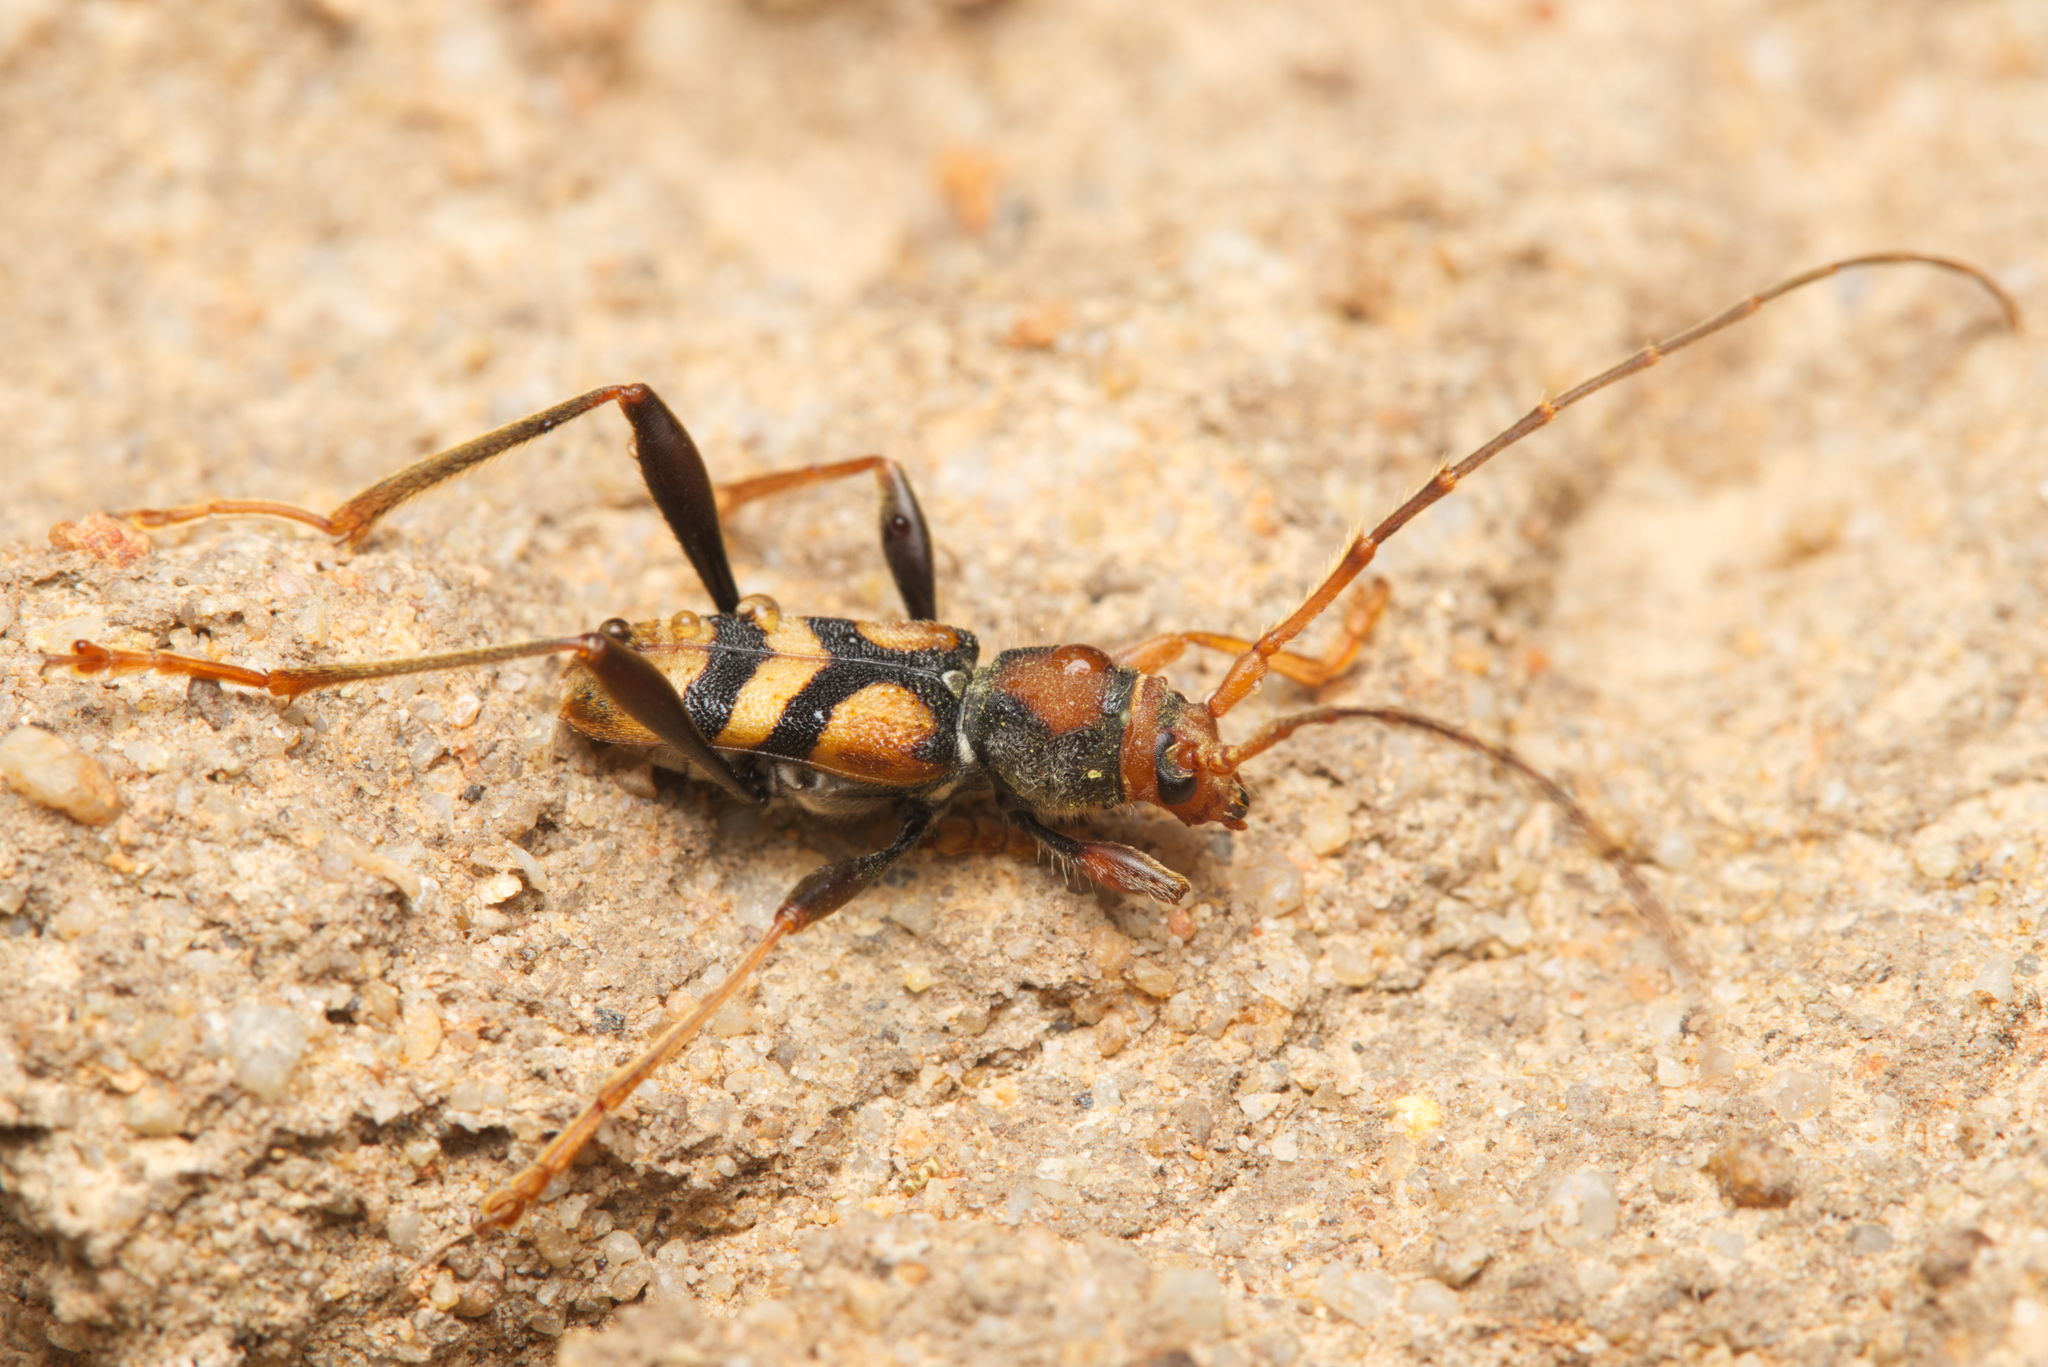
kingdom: Animalia
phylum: Arthropoda
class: Insecta
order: Coleoptera
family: Cerambycidae
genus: Aridaeus
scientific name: Aridaeus thoracicus
